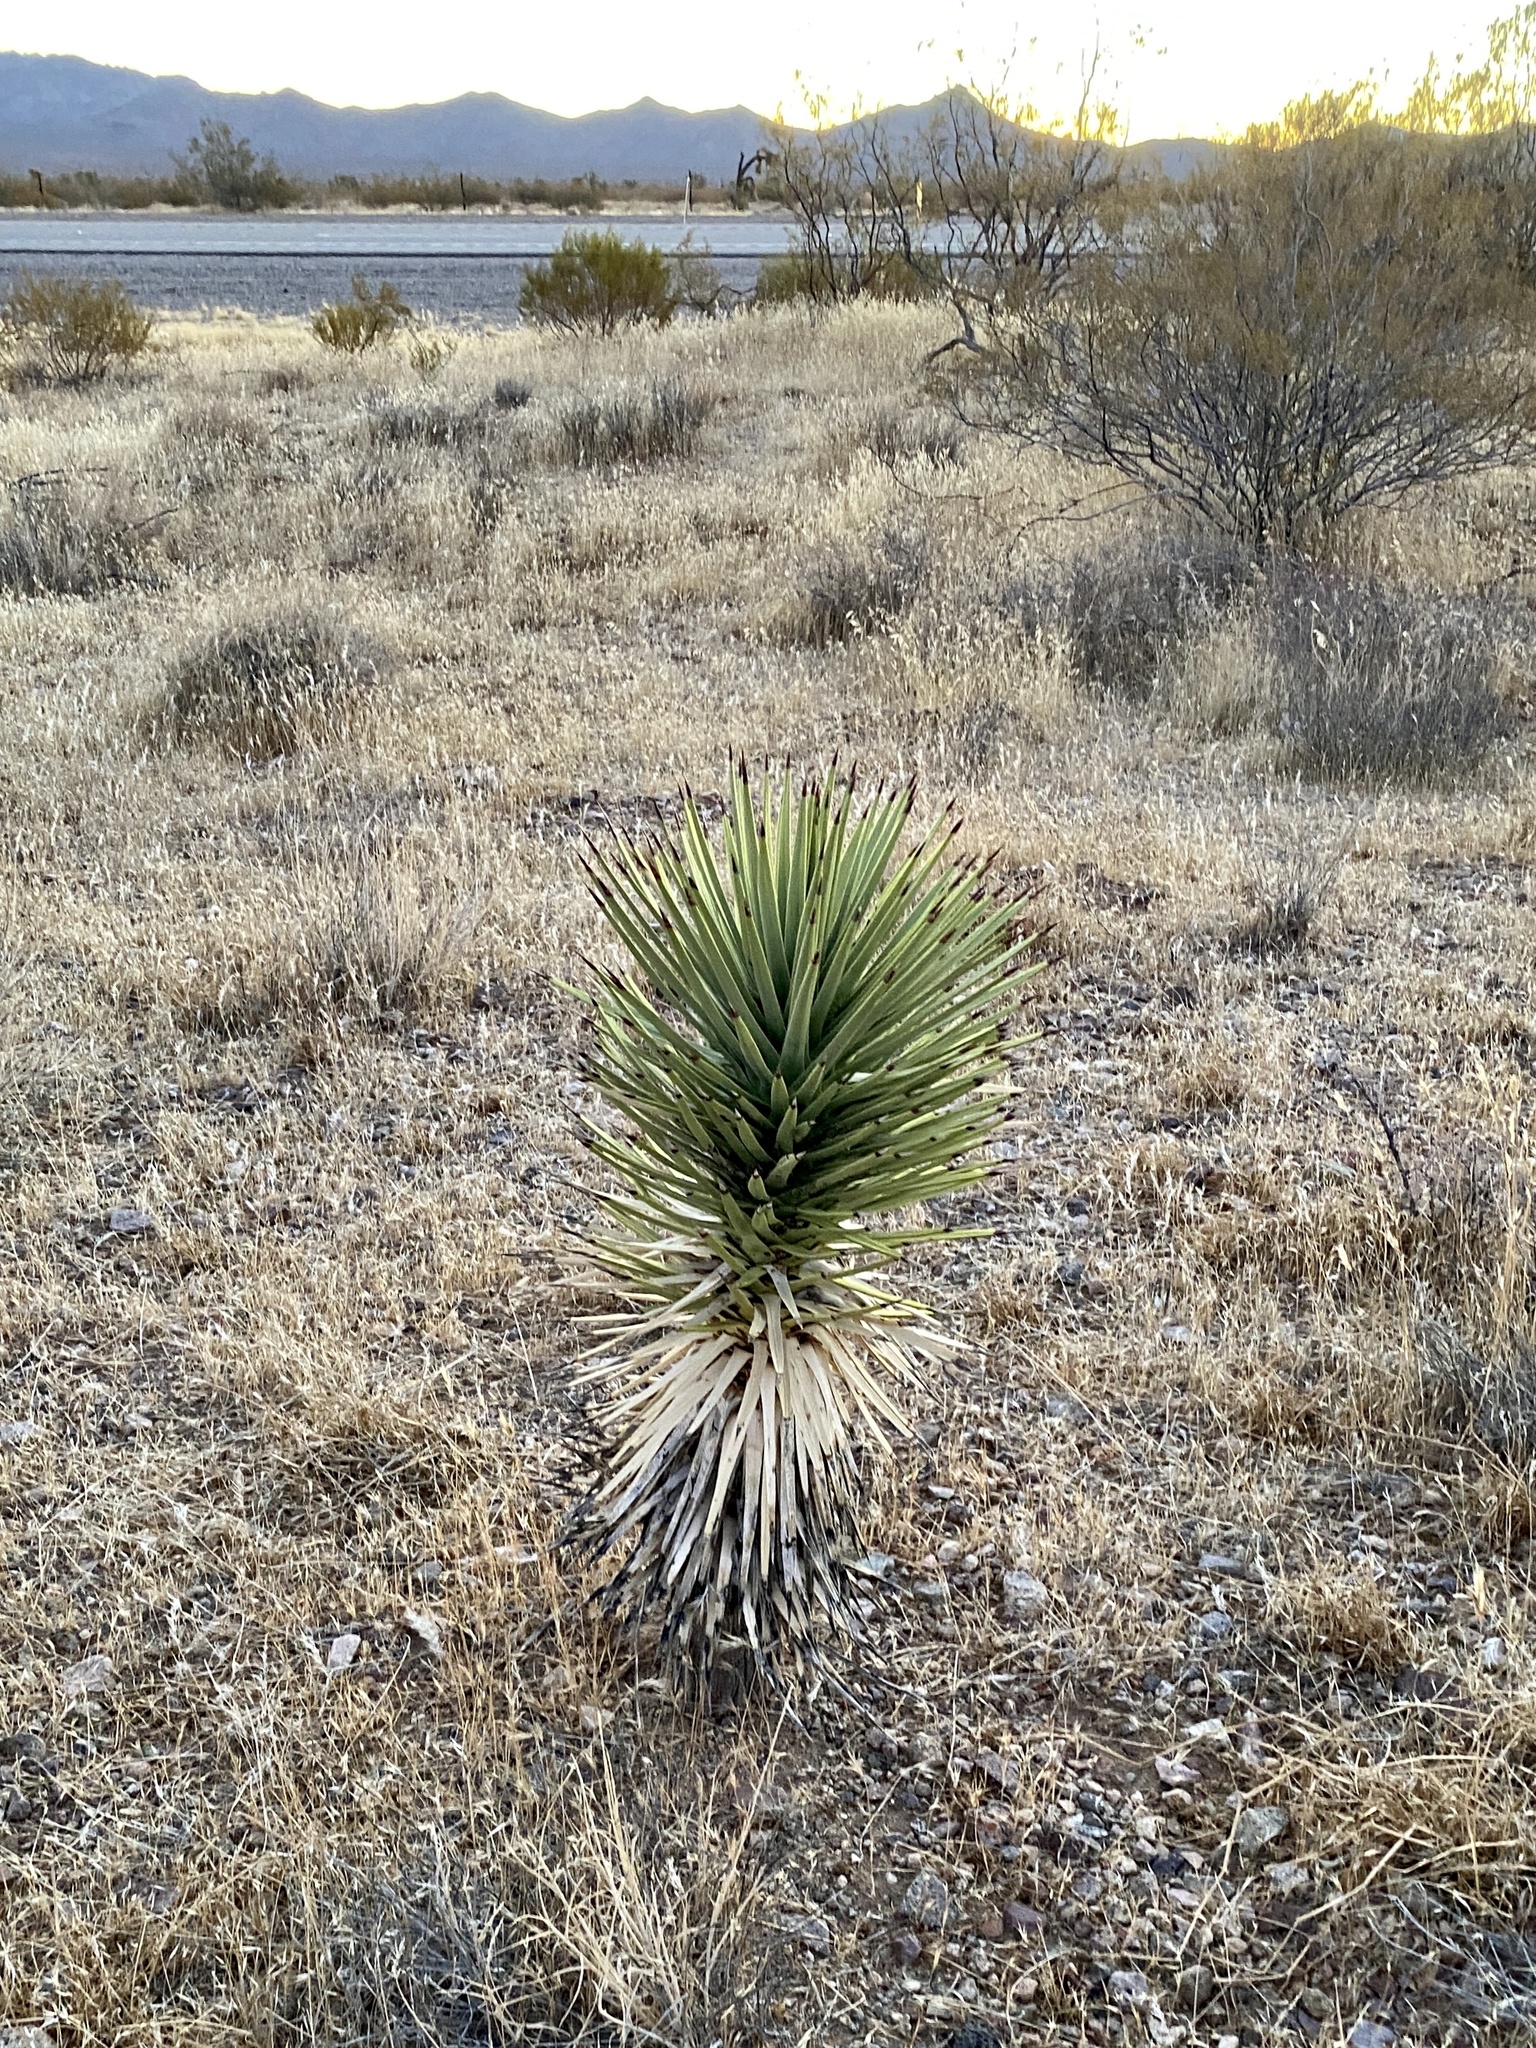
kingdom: Plantae
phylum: Tracheophyta
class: Liliopsida
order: Asparagales
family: Asparagaceae
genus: Yucca
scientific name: Yucca brevifolia
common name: Joshua tree
